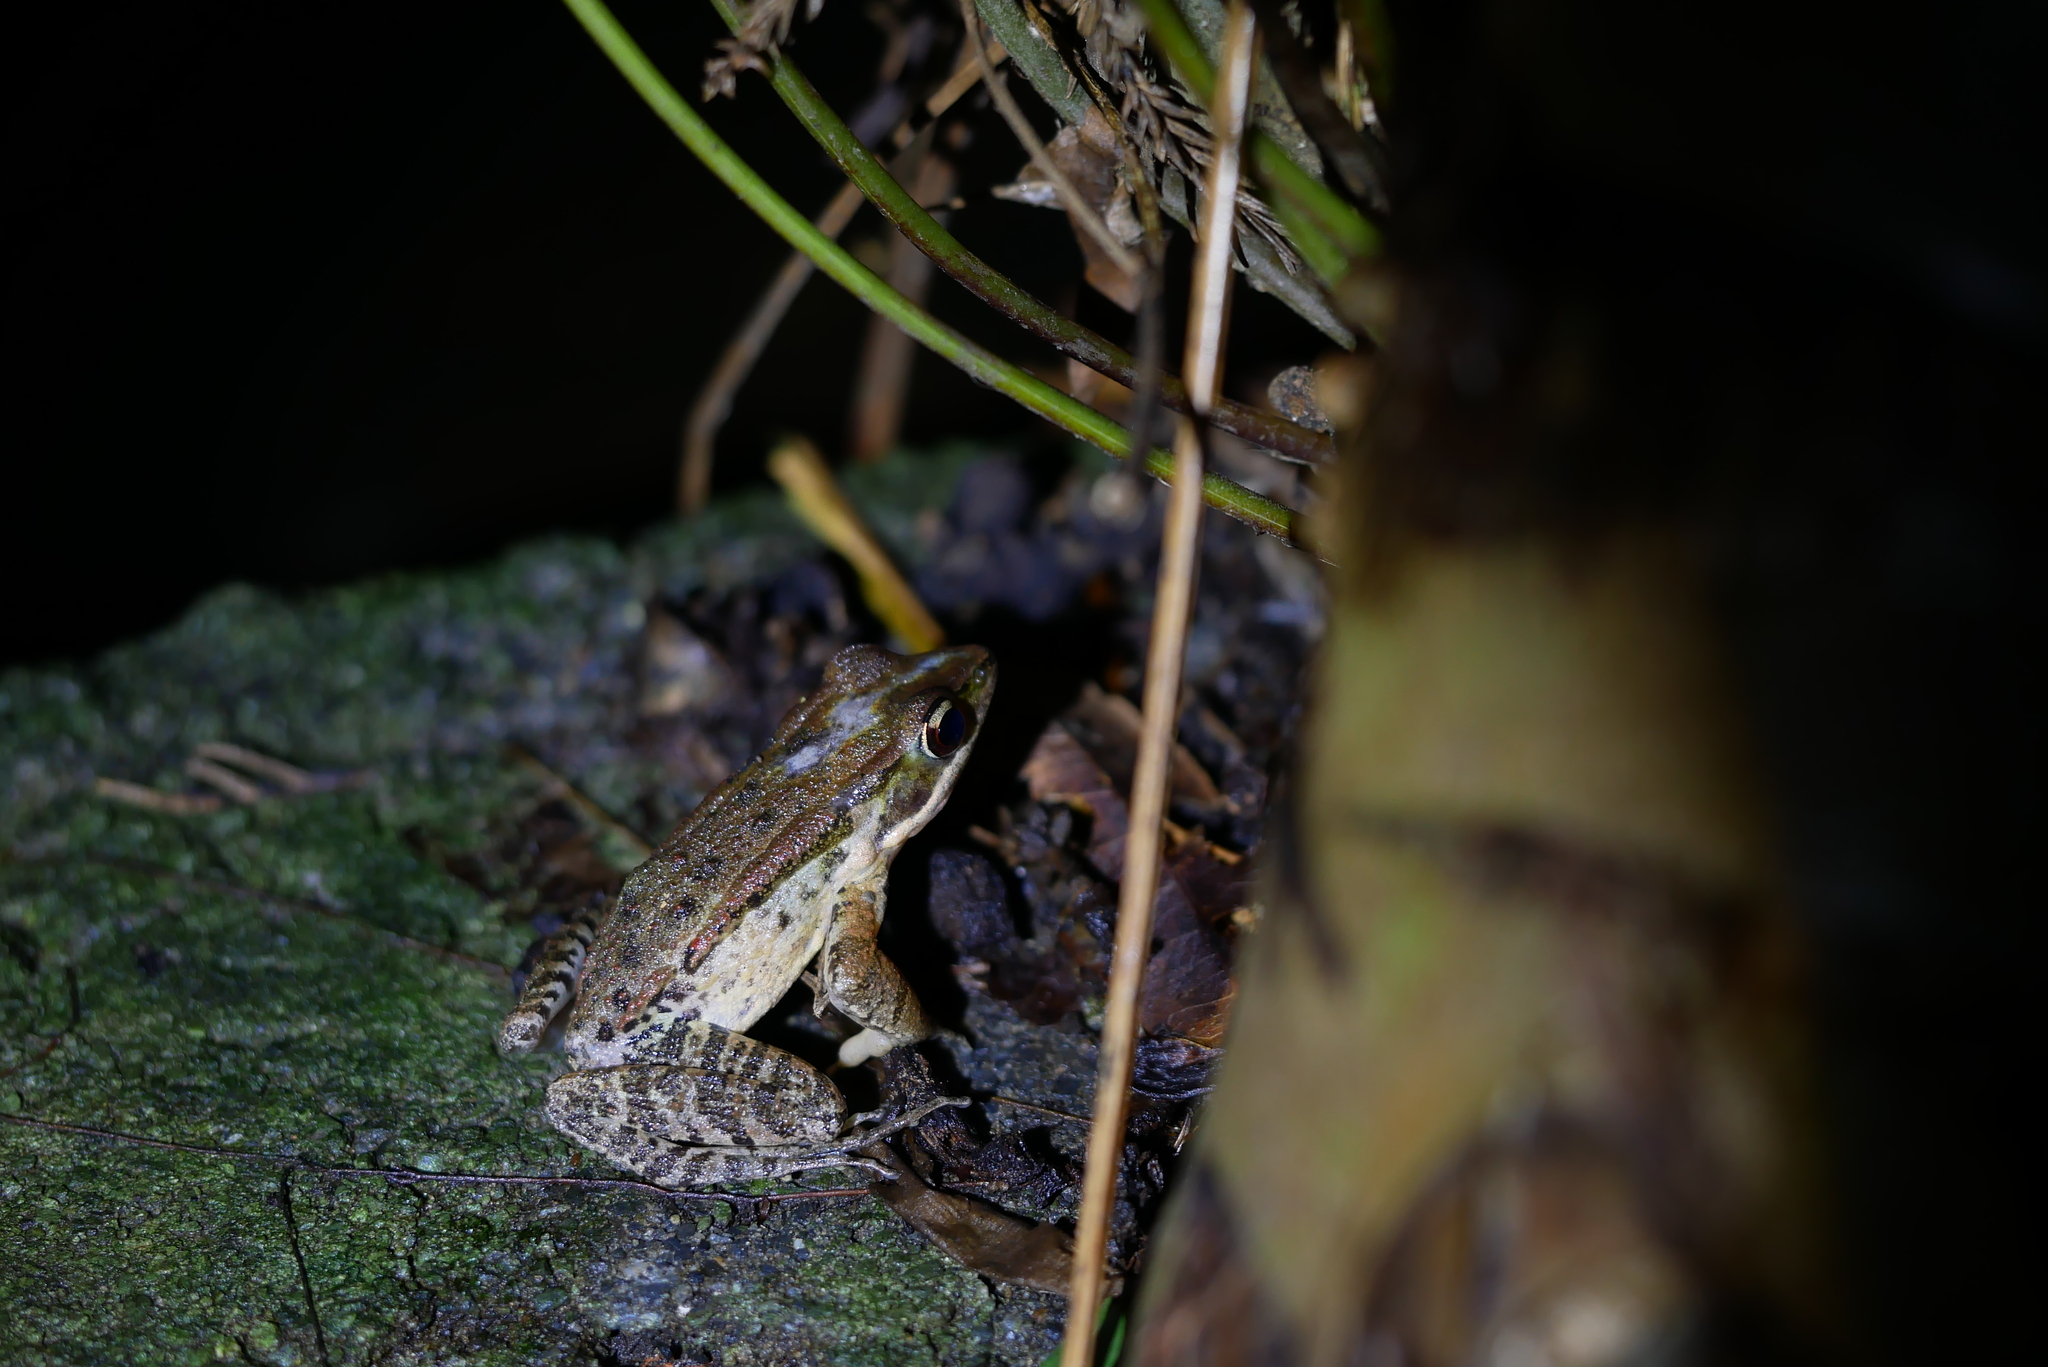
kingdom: Animalia
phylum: Chordata
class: Amphibia
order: Anura
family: Ranidae
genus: Hylarana
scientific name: Hylarana latouchii
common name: Broad-folded frog
